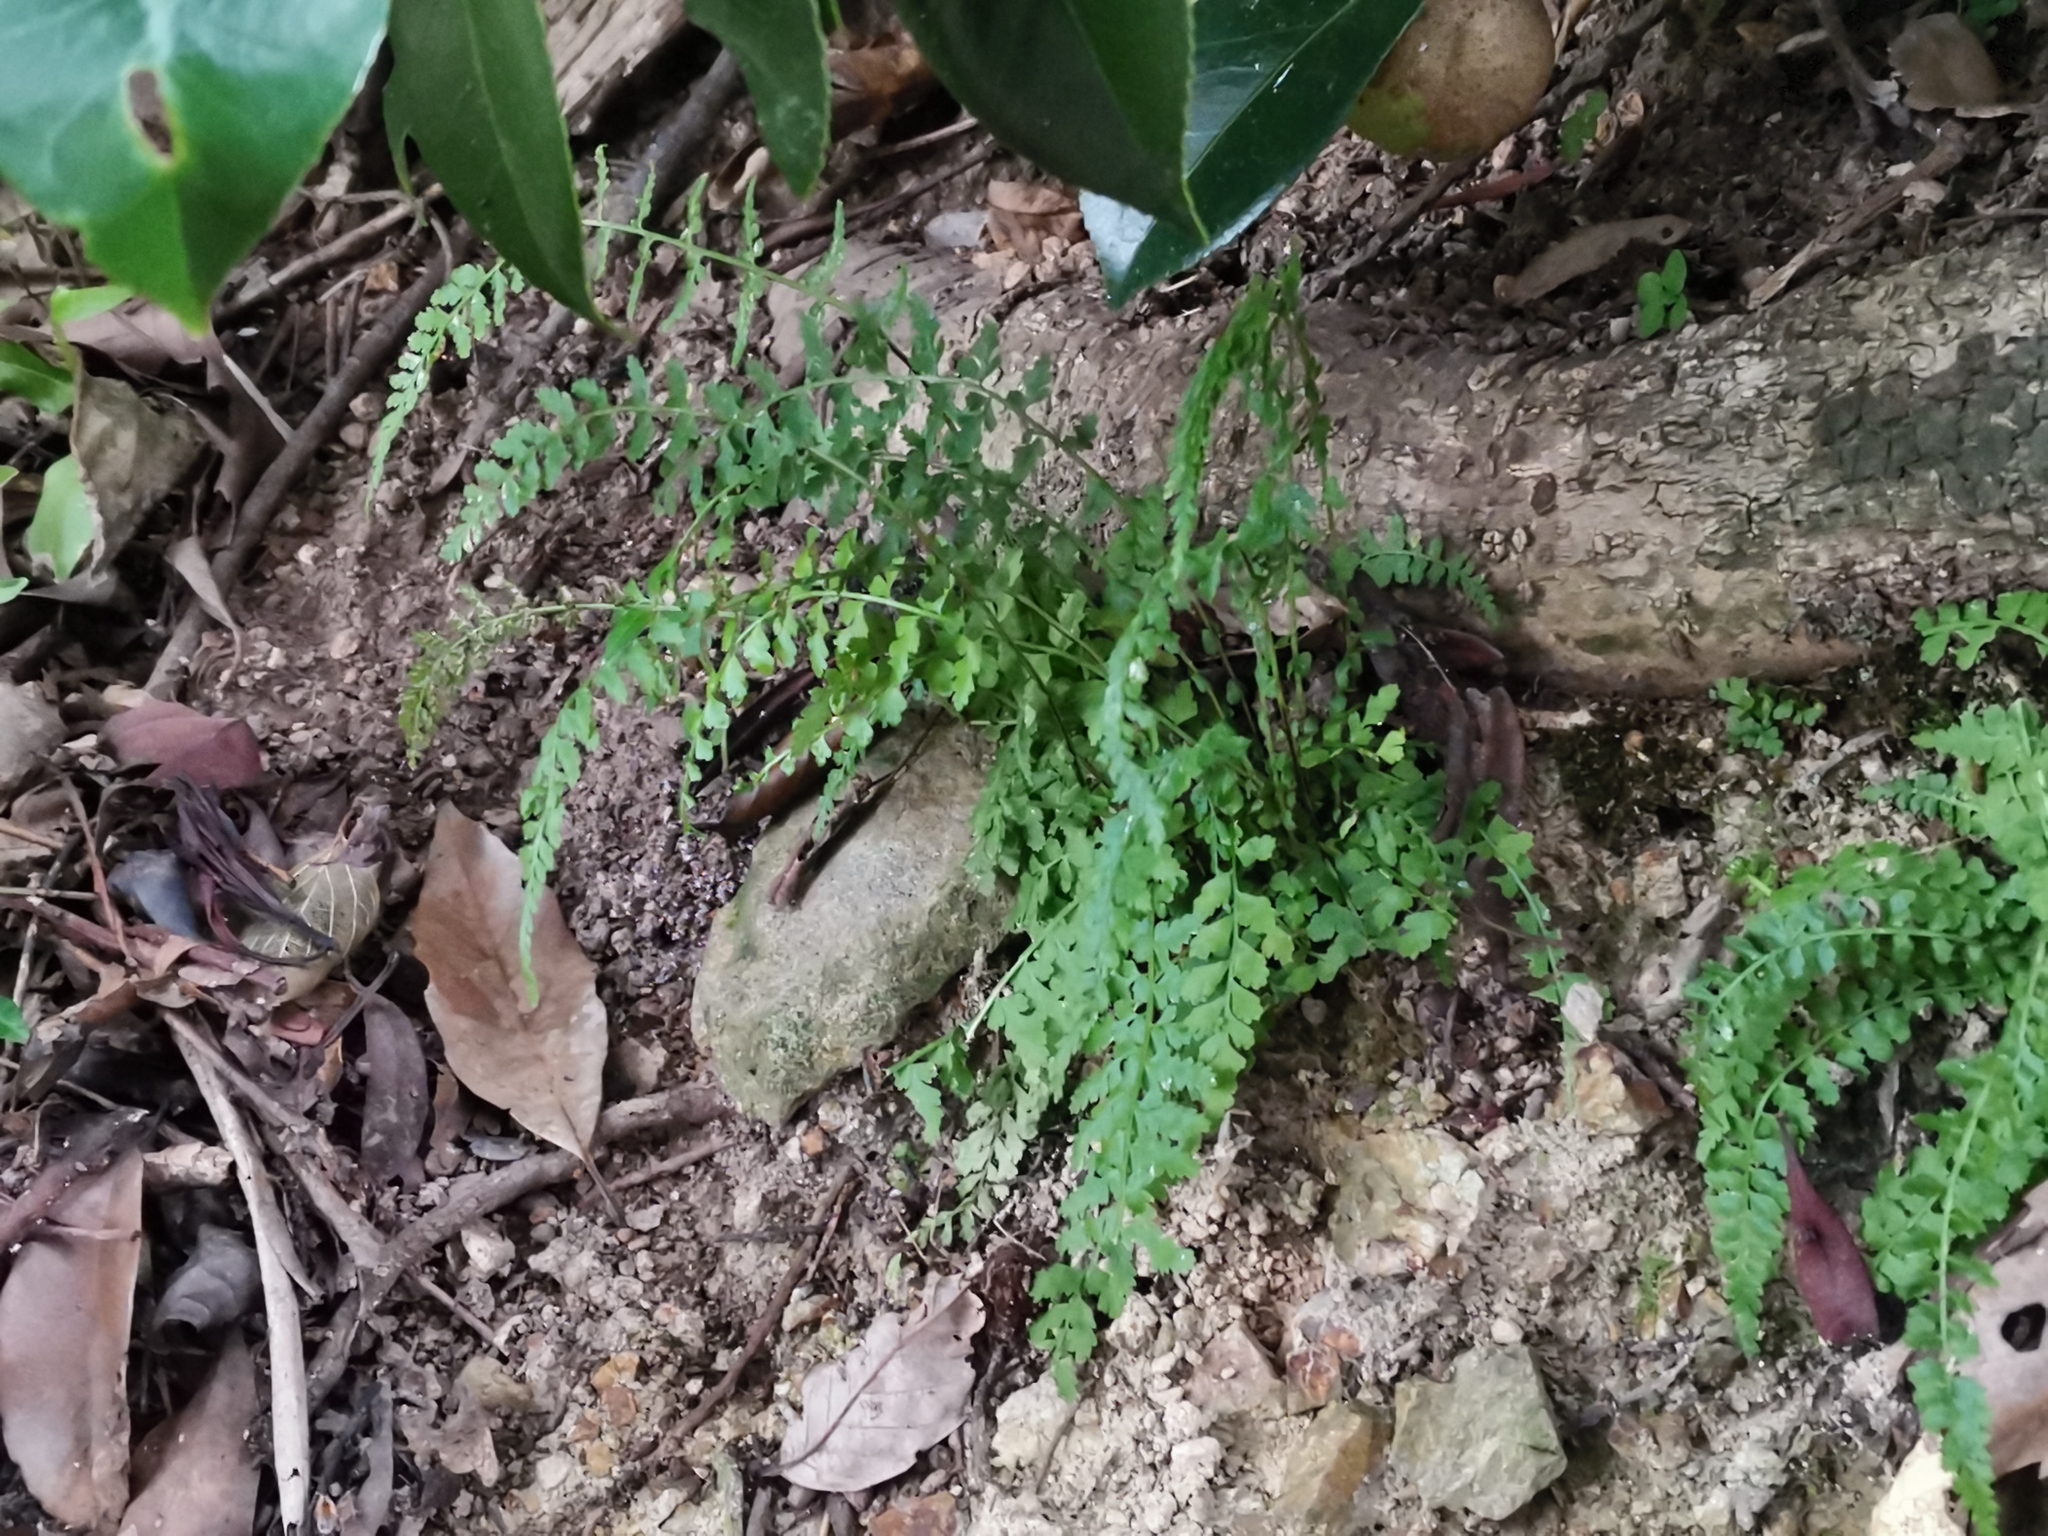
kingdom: Plantae
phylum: Tracheophyta
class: Polypodiopsida
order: Polypodiales
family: Aspleniaceae
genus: Asplenium
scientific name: Asplenium incisum
